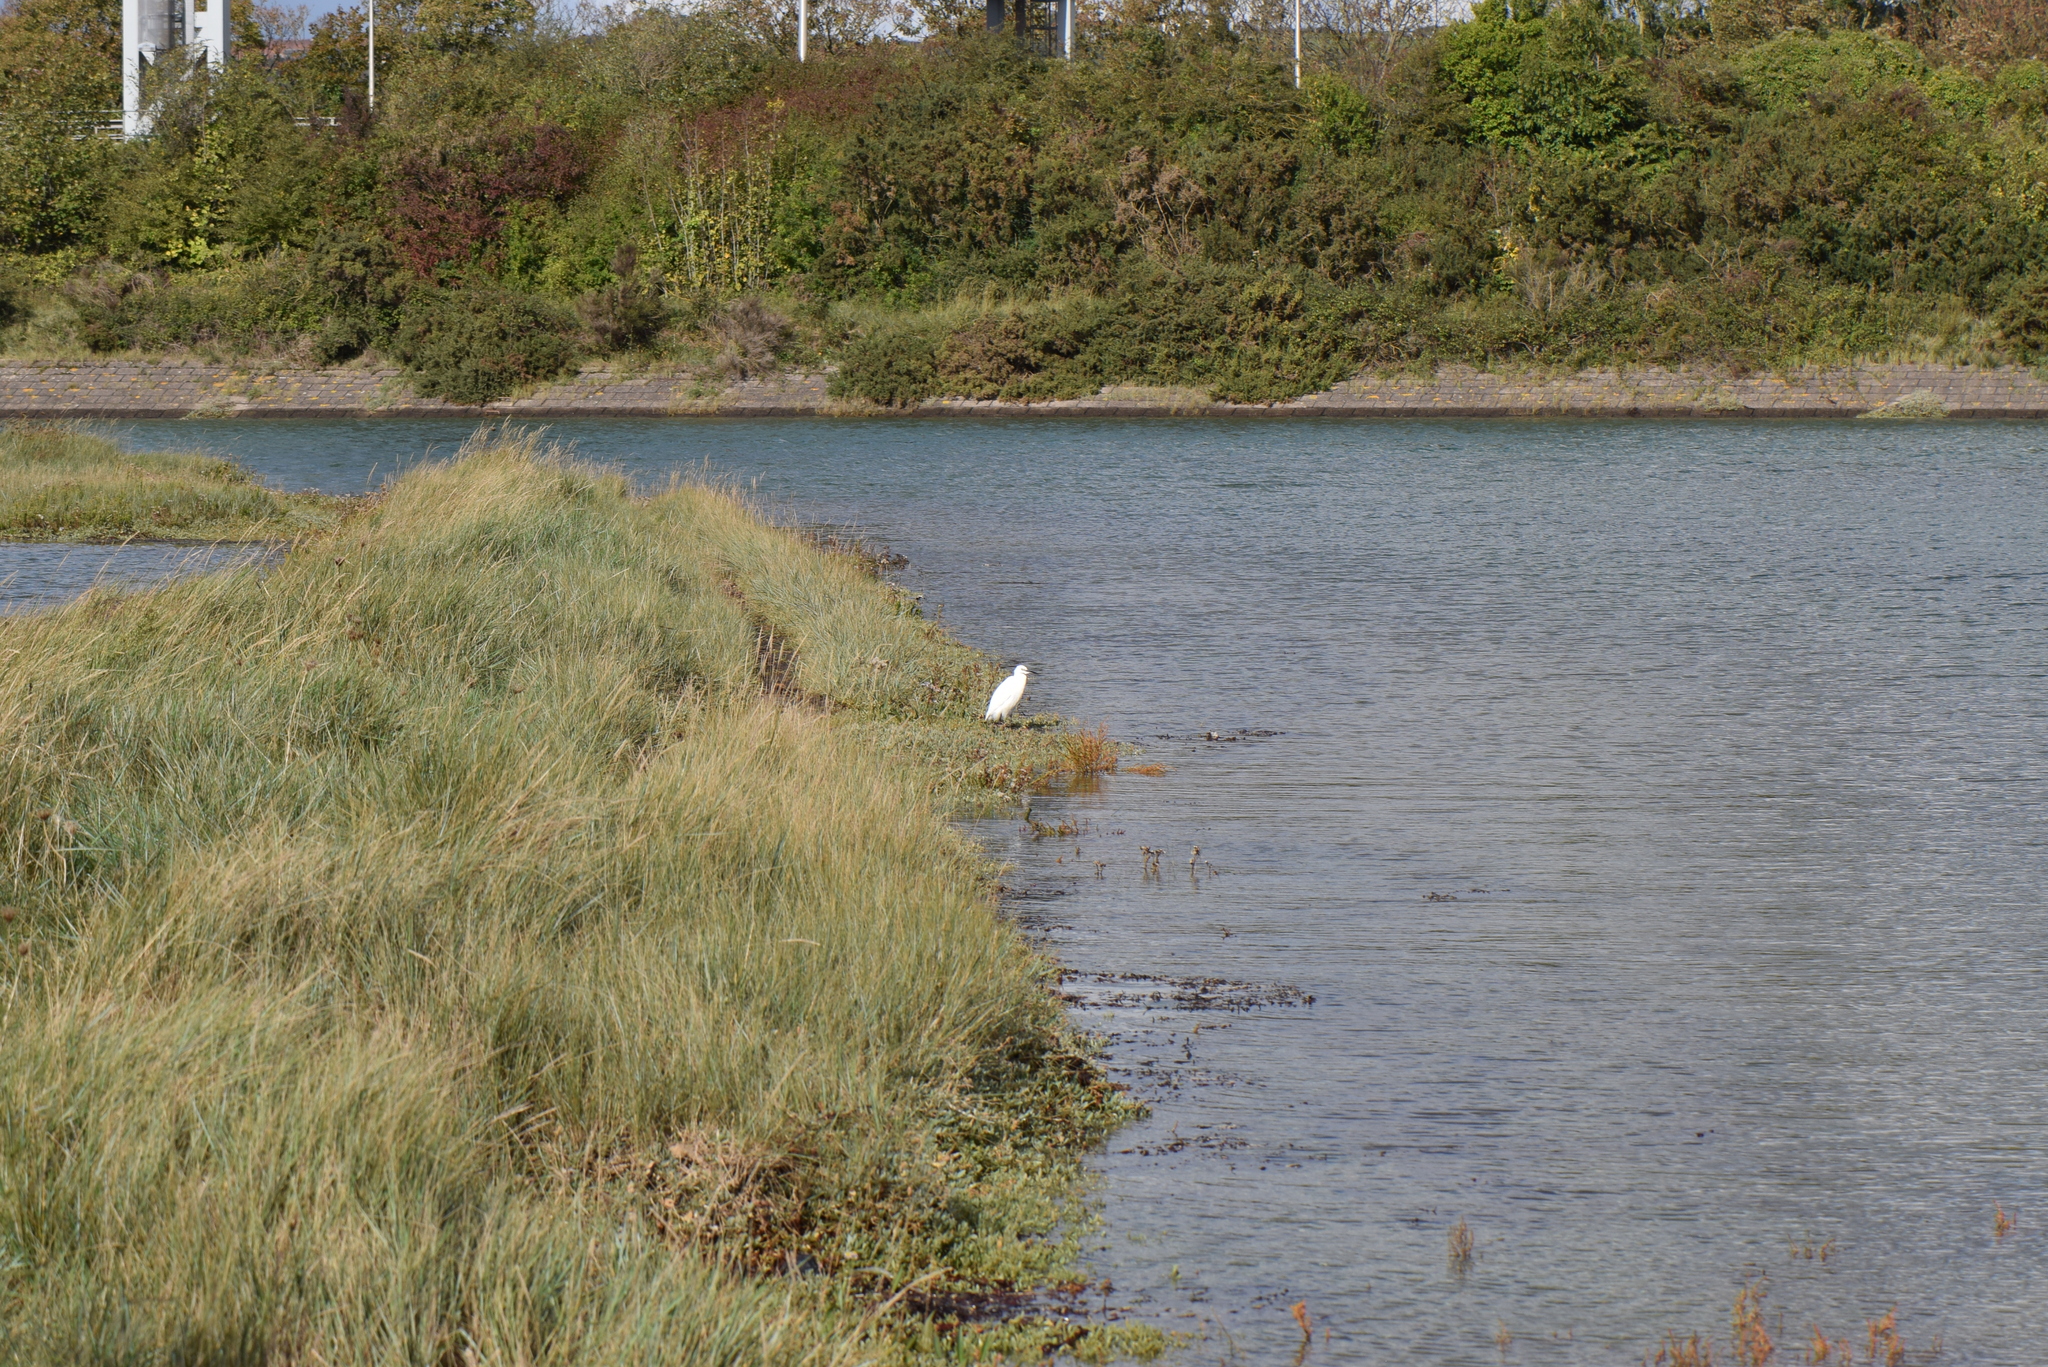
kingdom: Animalia
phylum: Chordata
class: Aves
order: Pelecaniformes
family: Ardeidae
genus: Egretta
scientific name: Egretta garzetta
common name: Little egret
